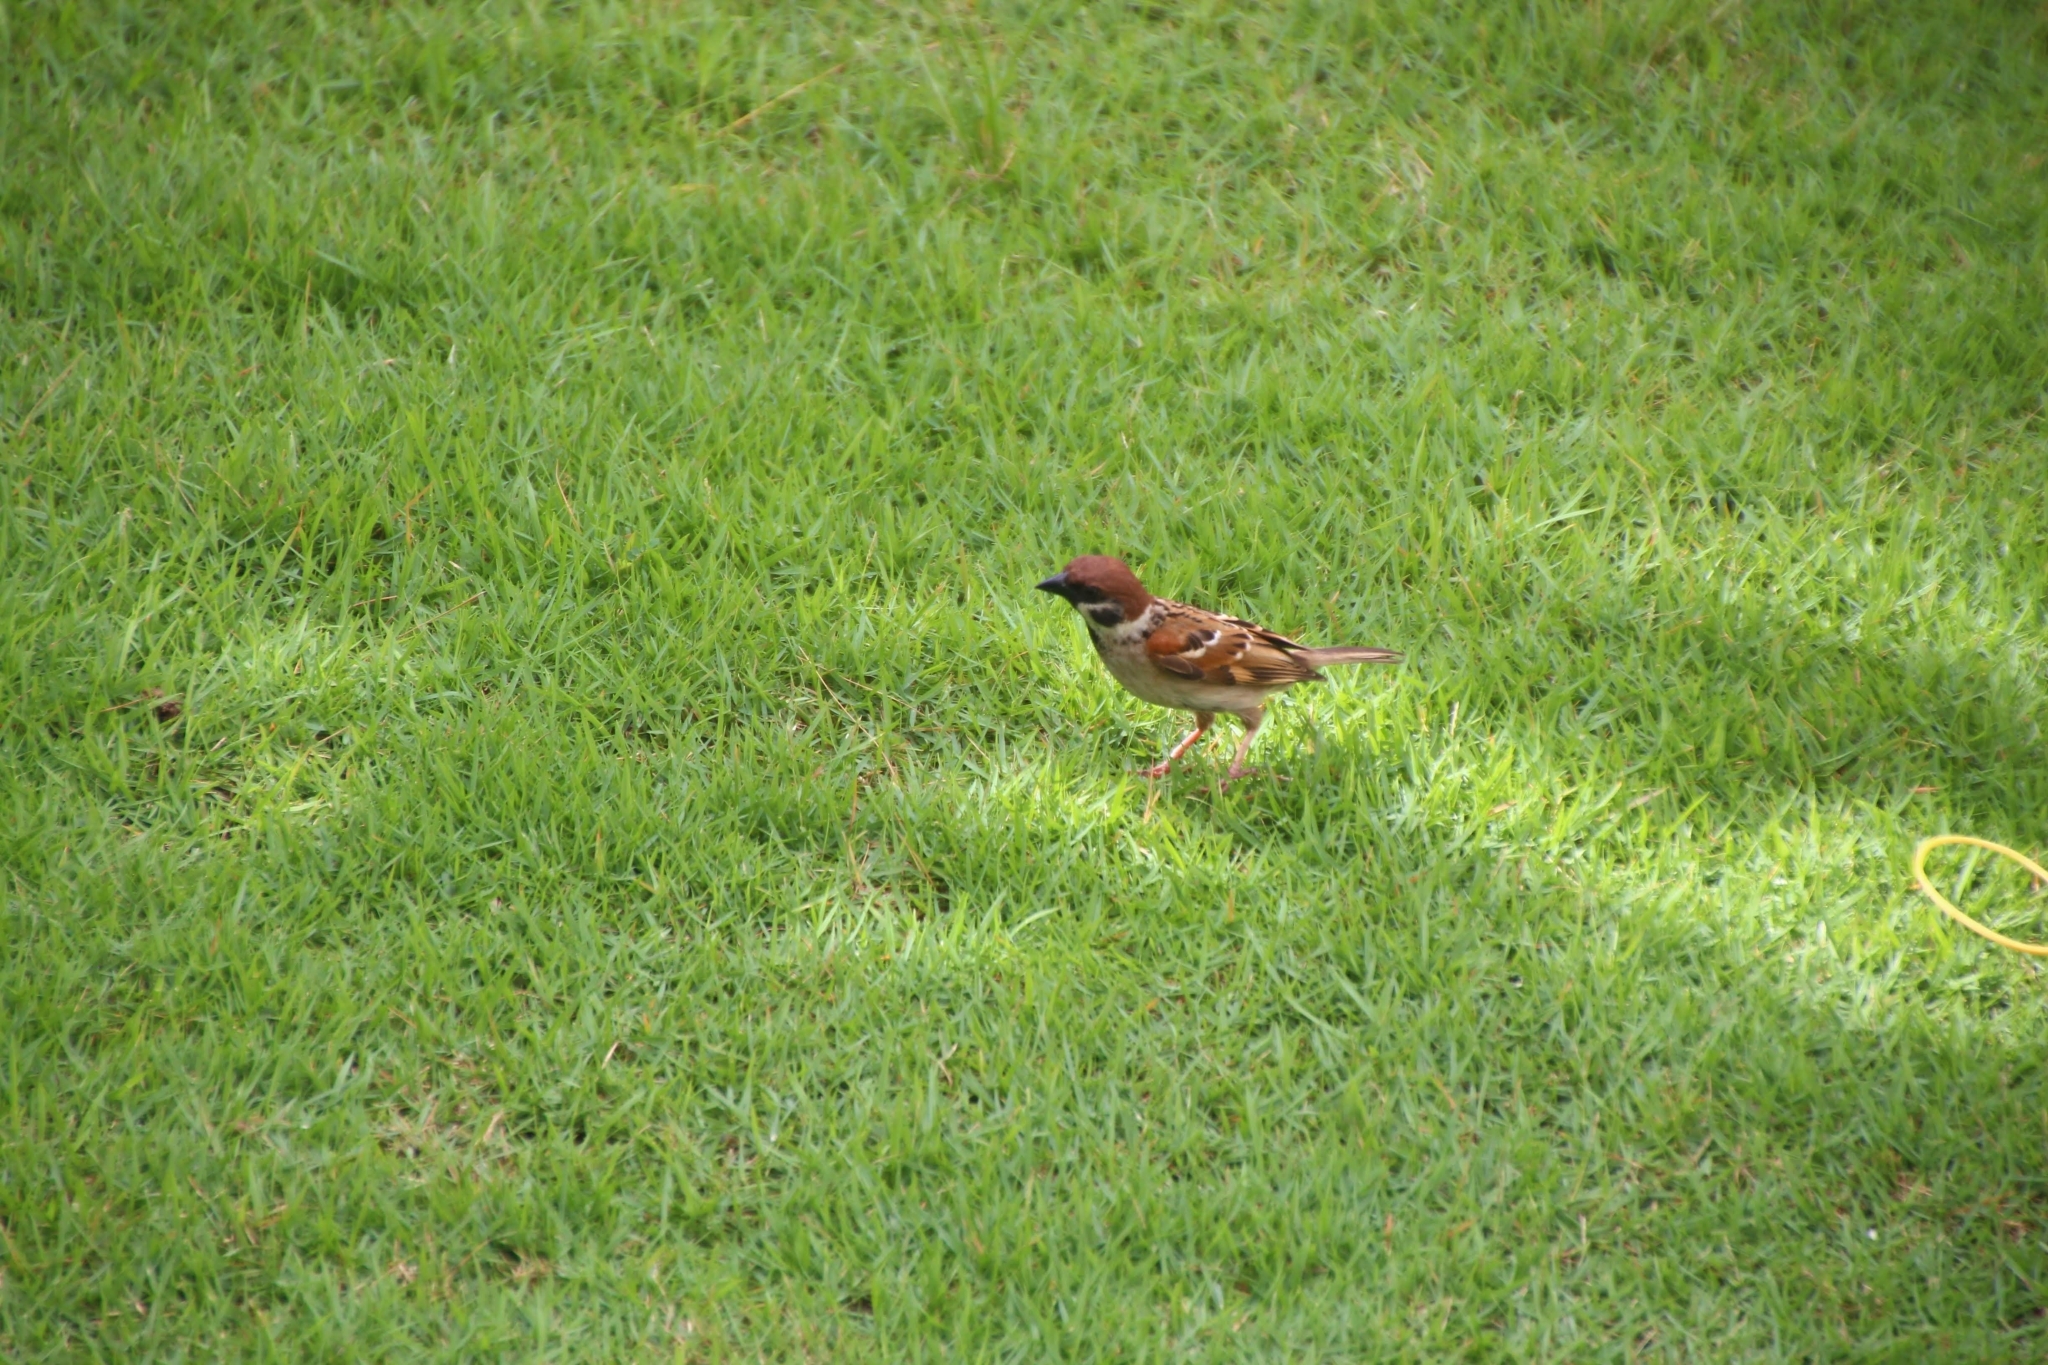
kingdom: Animalia
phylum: Chordata
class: Aves
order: Passeriformes
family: Passeridae
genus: Passer
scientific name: Passer montanus
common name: Eurasian tree sparrow
